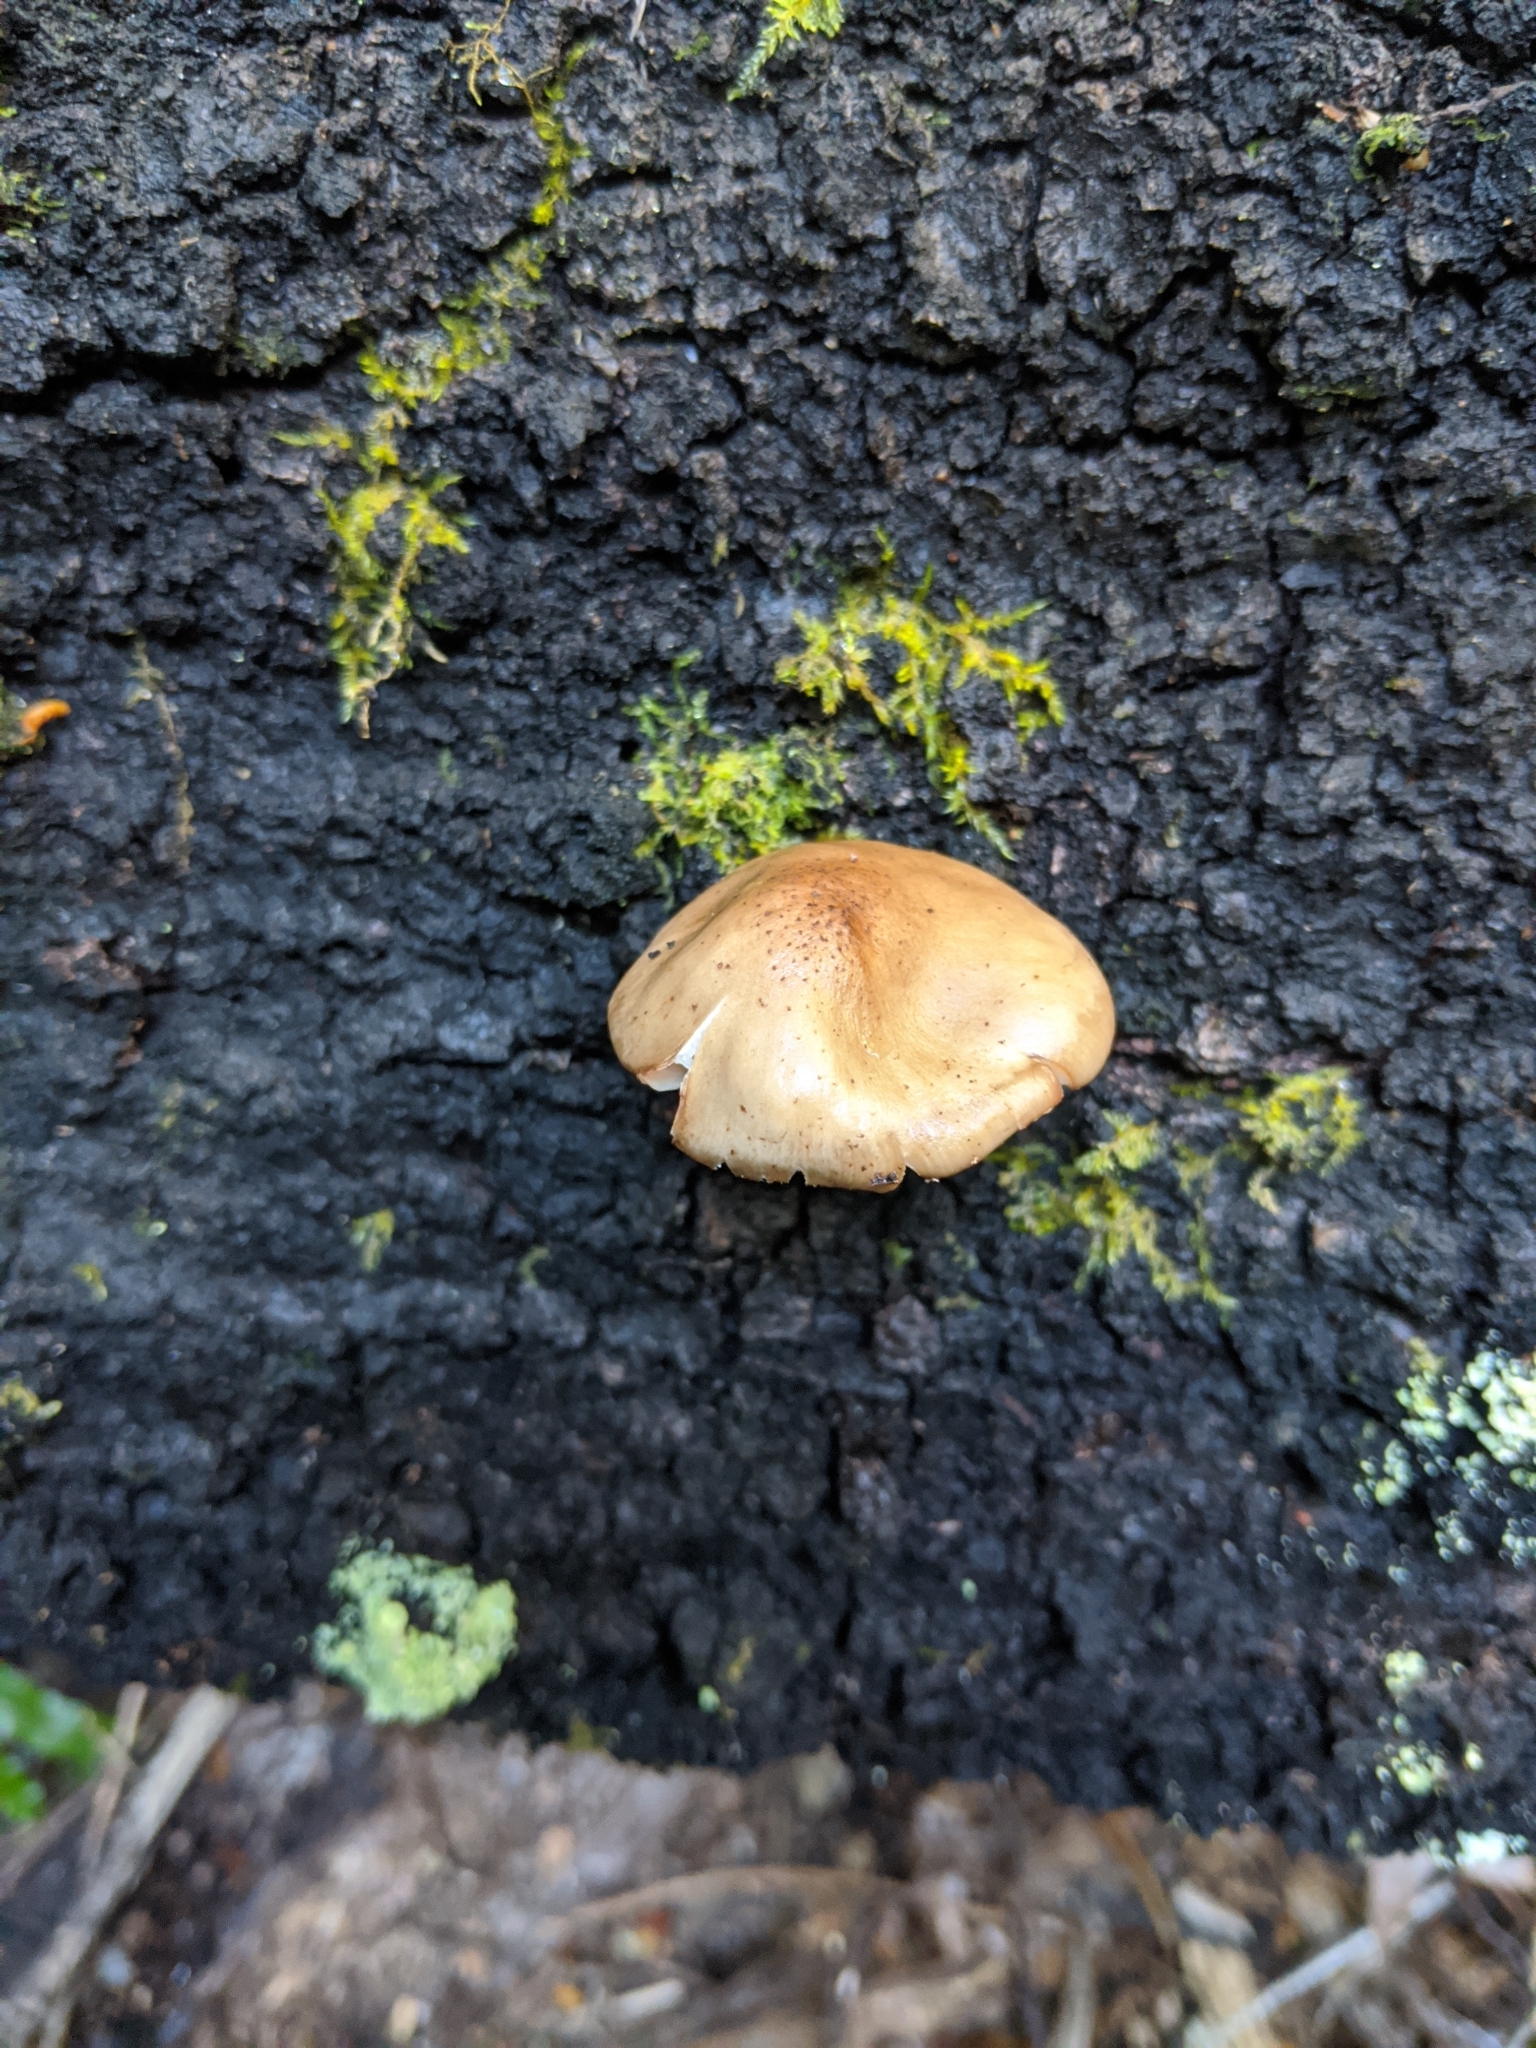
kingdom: Fungi
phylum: Basidiomycota
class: Agaricomycetes
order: Agaricales
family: Physalacriaceae
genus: Armillaria
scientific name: Armillaria novae-zelandiae
